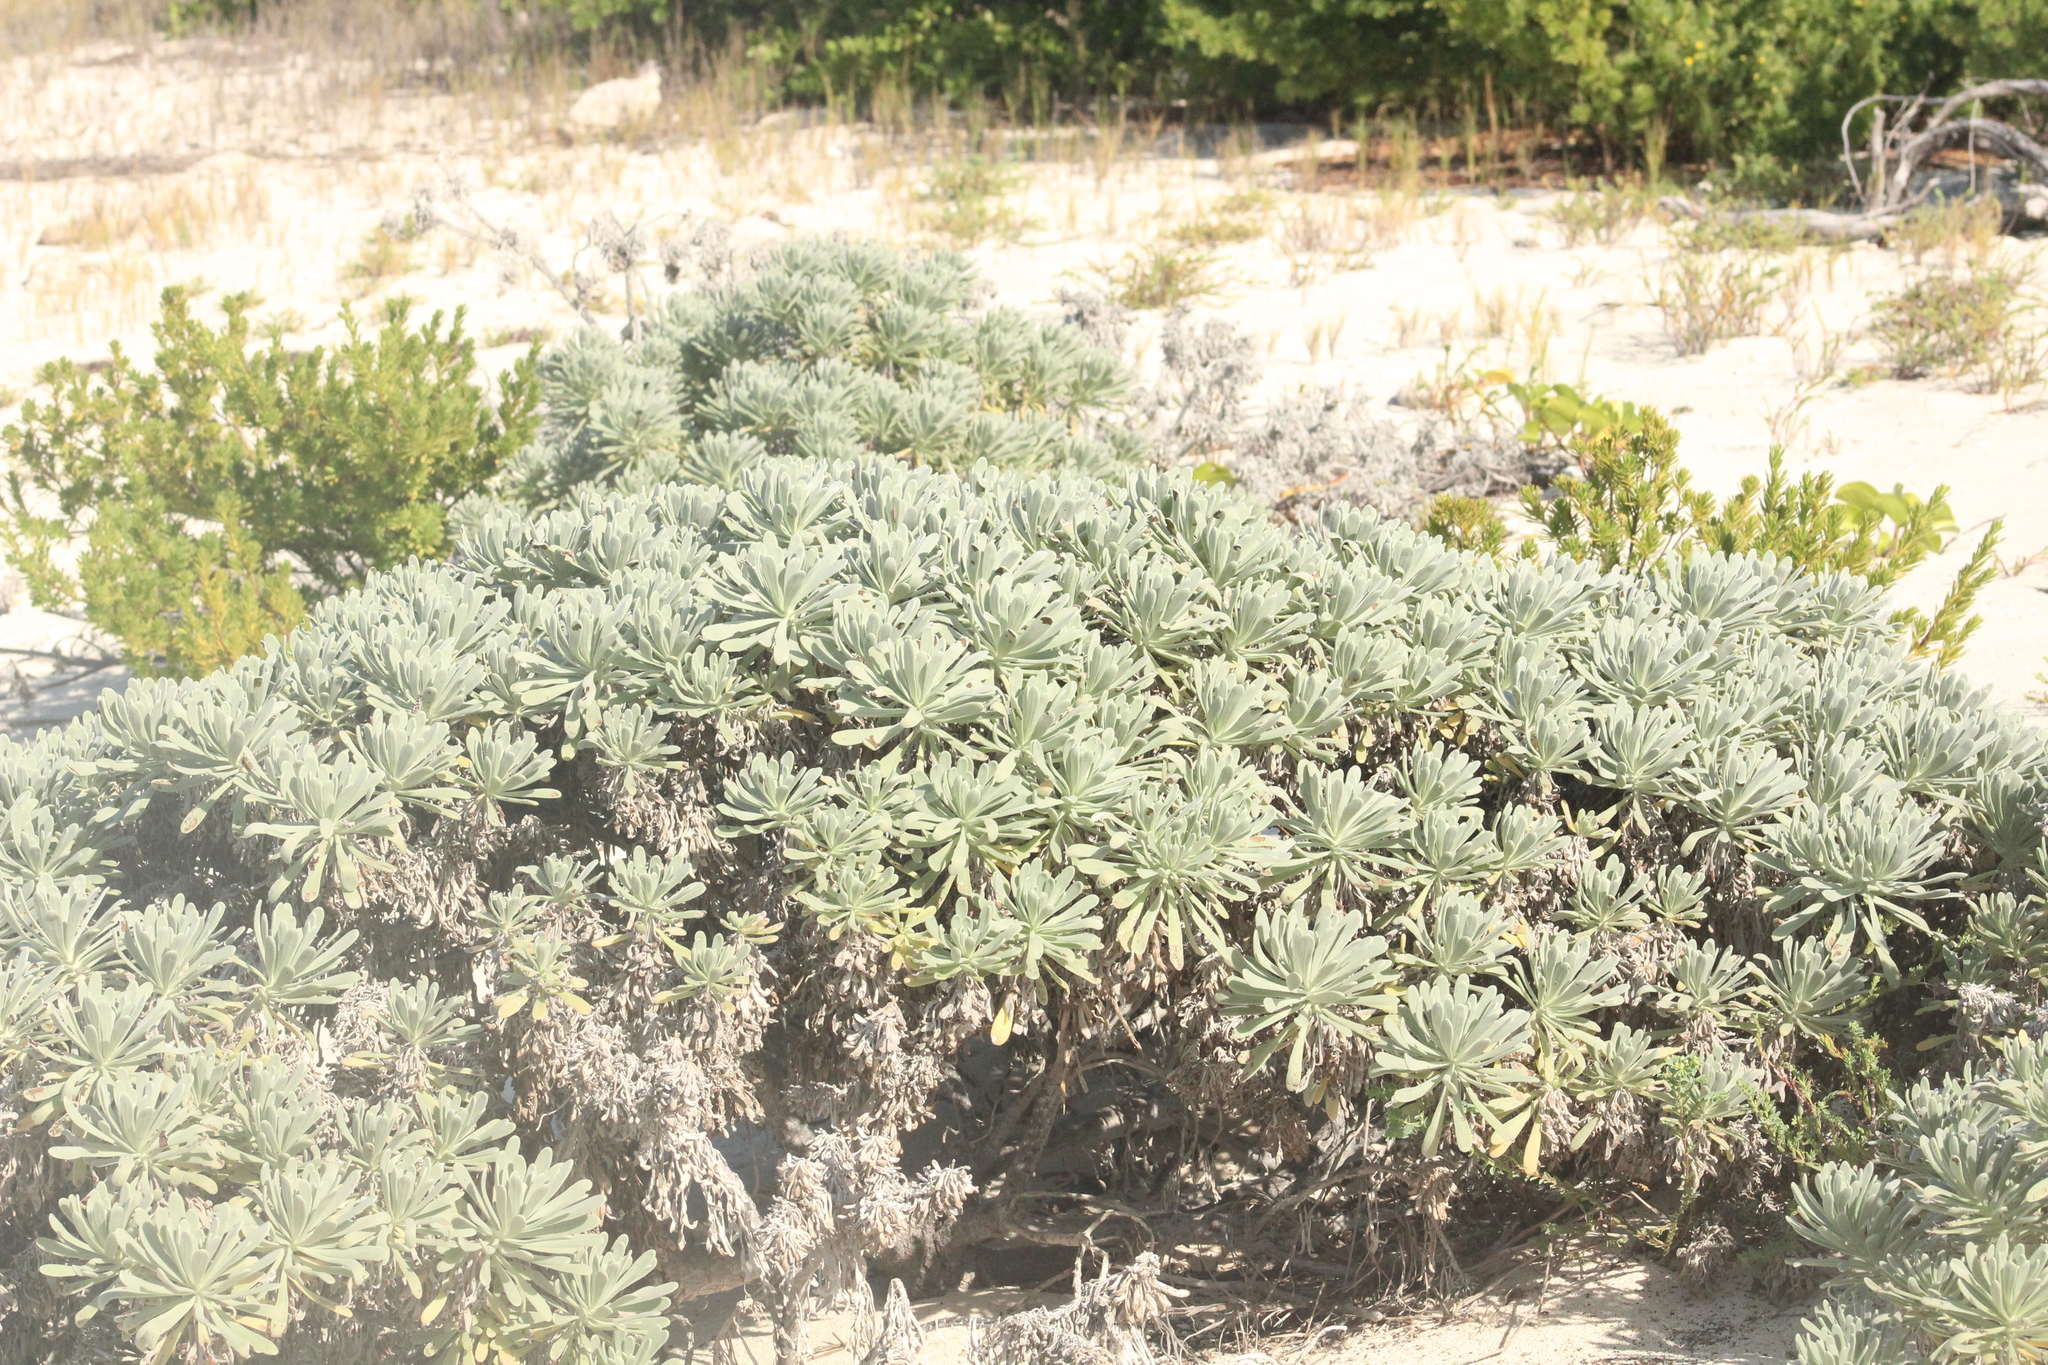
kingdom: Plantae
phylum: Tracheophyta
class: Magnoliopsida
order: Boraginales
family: Heliotropiaceae
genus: Tournefortia
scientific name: Tournefortia gnaphalodes
